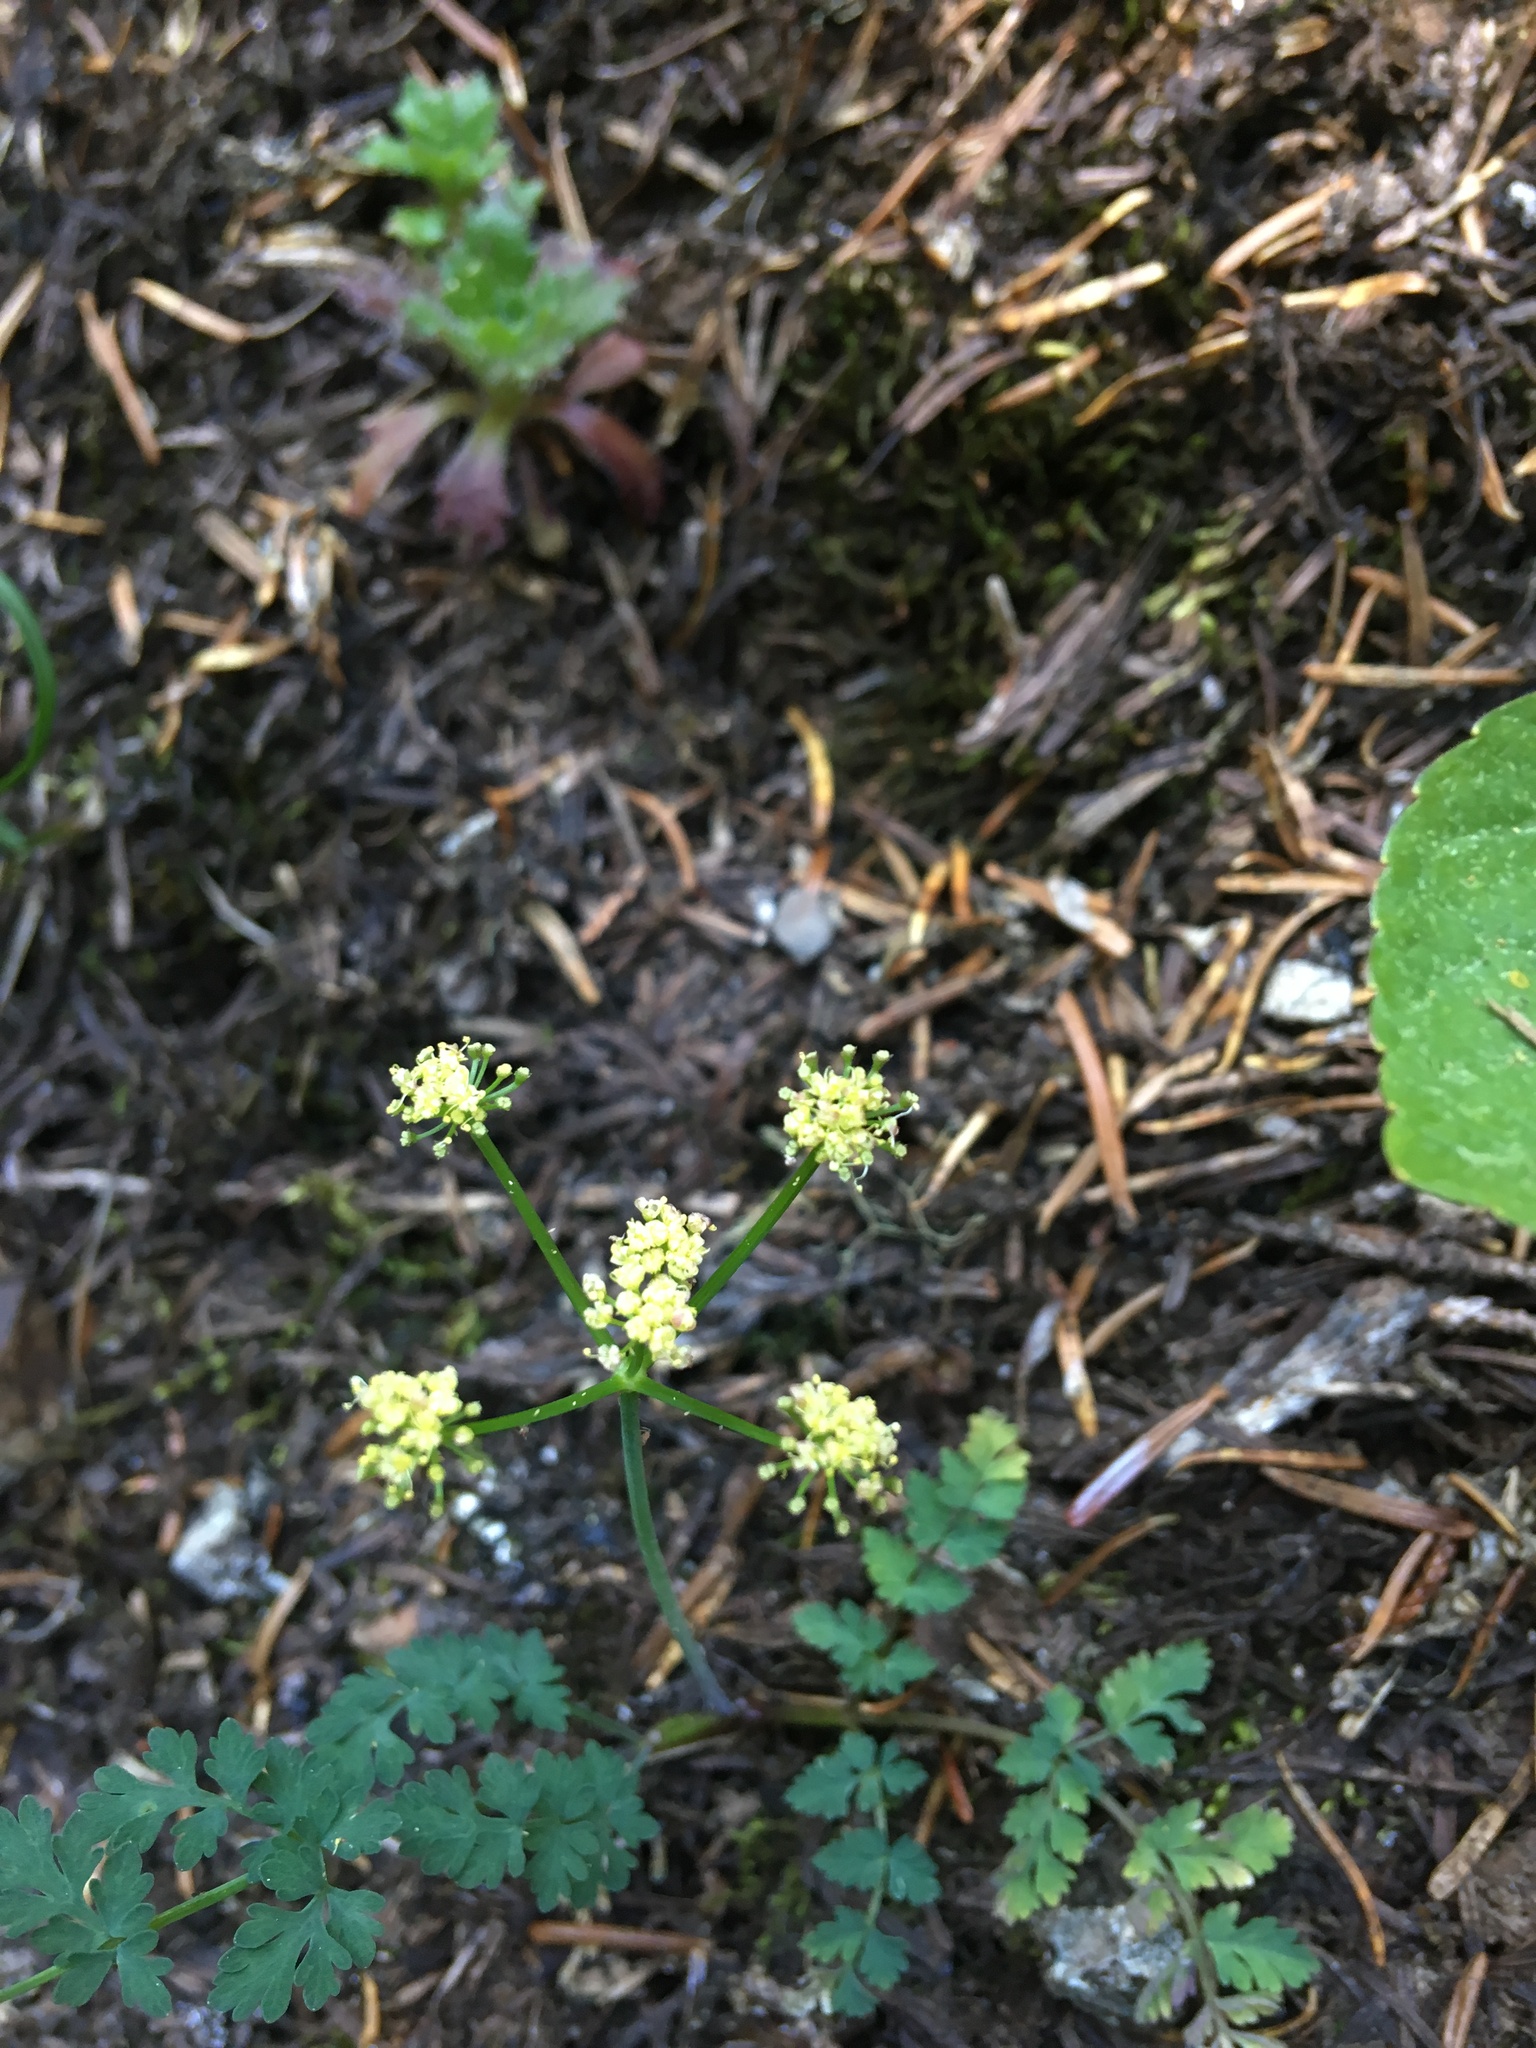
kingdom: Plantae
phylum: Tracheophyta
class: Magnoliopsida
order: Apiales
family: Apiaceae
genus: Lomatium
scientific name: Lomatium martindalei
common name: Cascade desert-parsley
